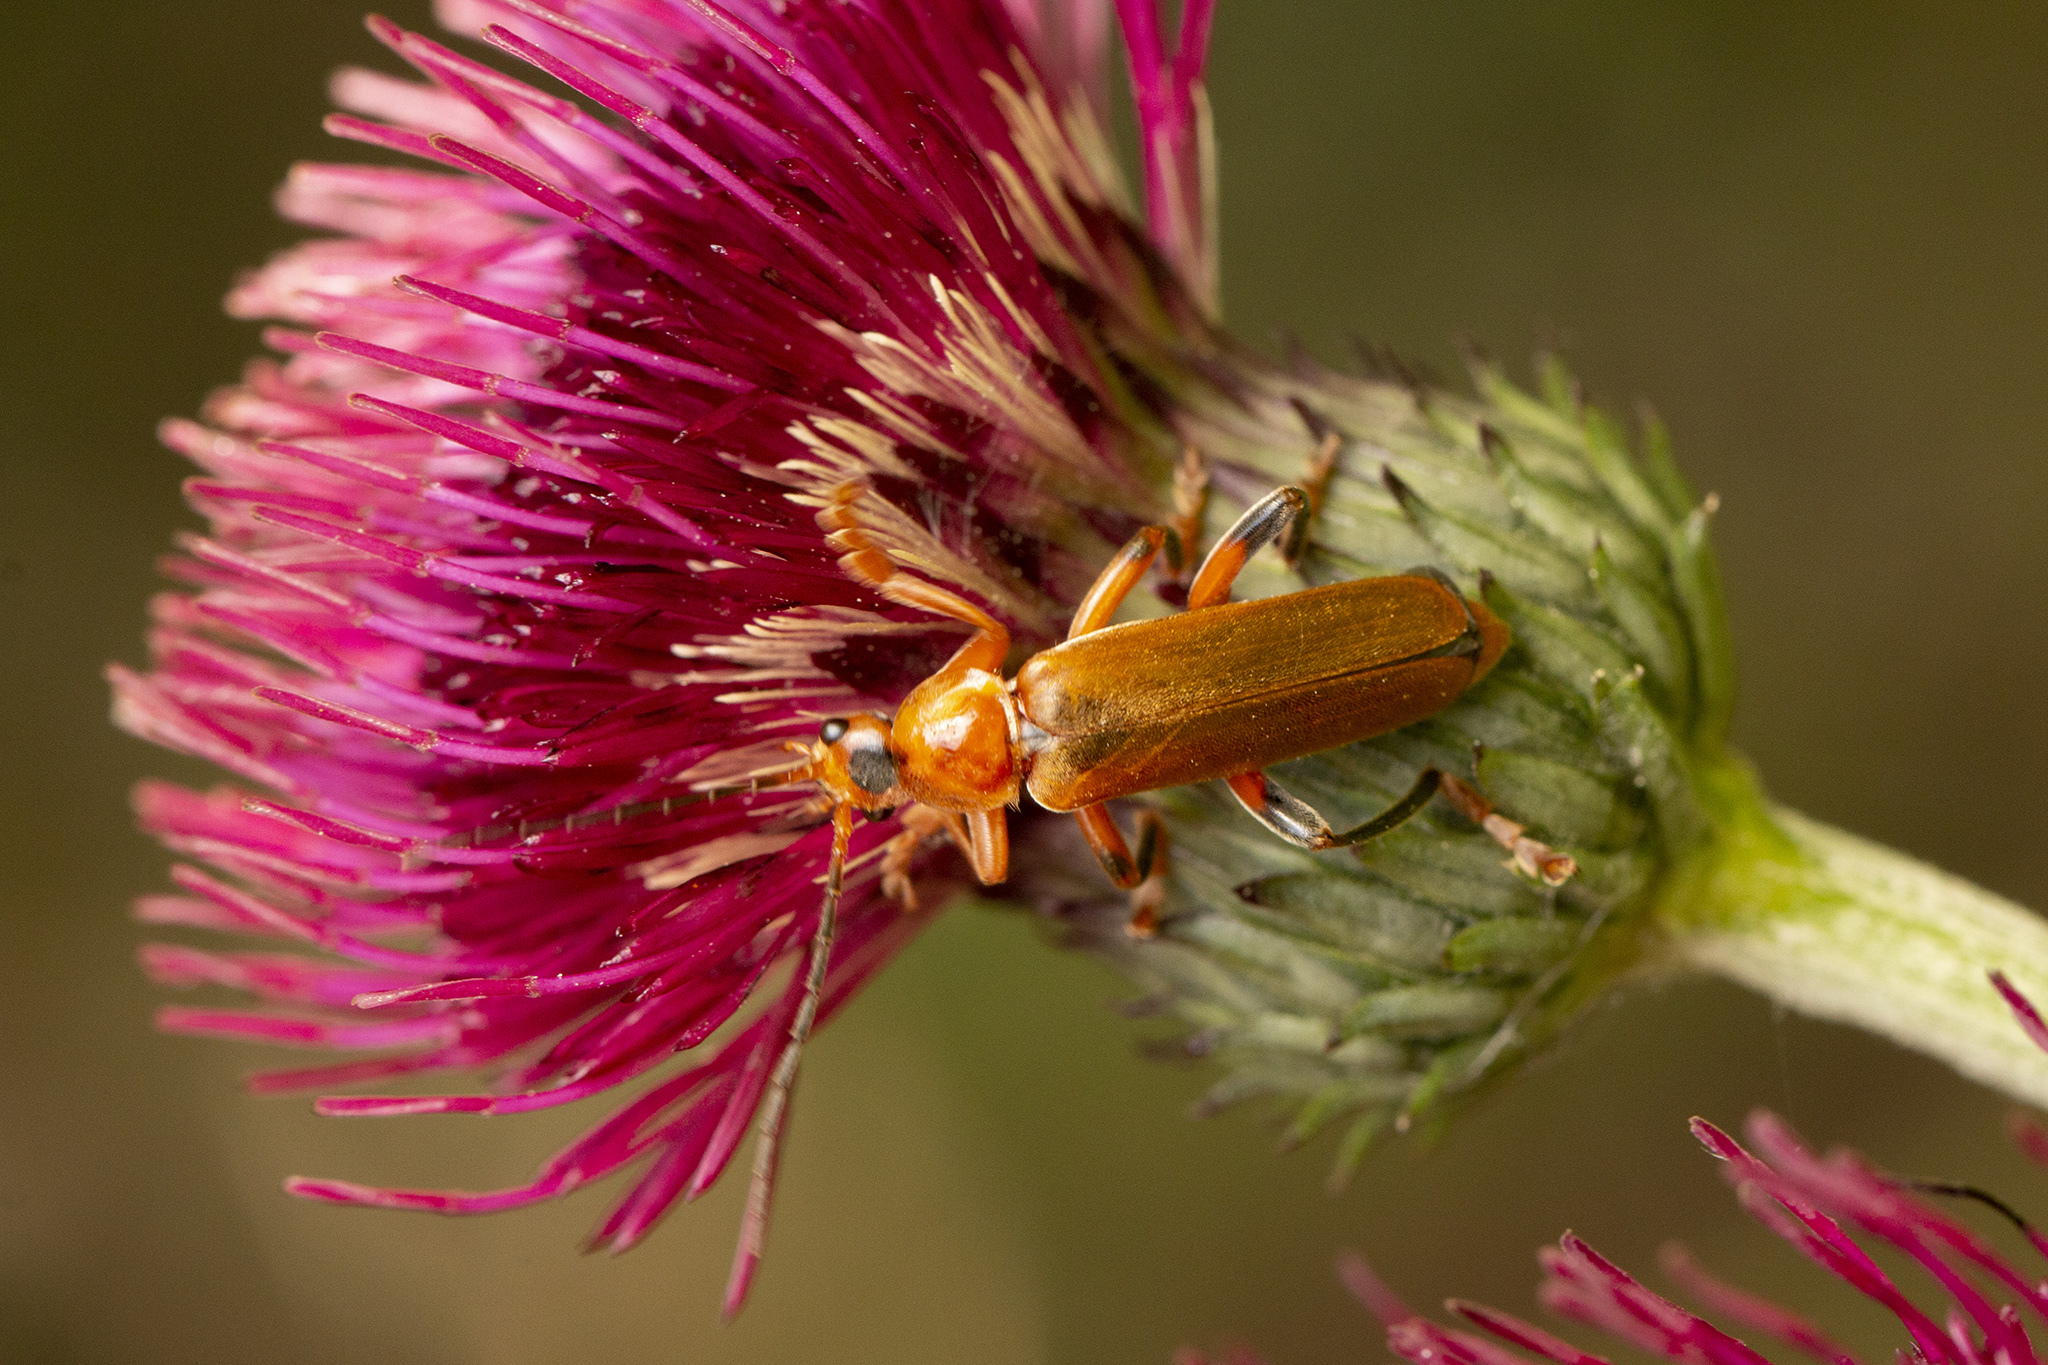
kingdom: Animalia
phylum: Arthropoda
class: Insecta
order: Coleoptera
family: Cantharidae
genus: Cantharis
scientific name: Cantharis livida
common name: Livid soldier beetle
